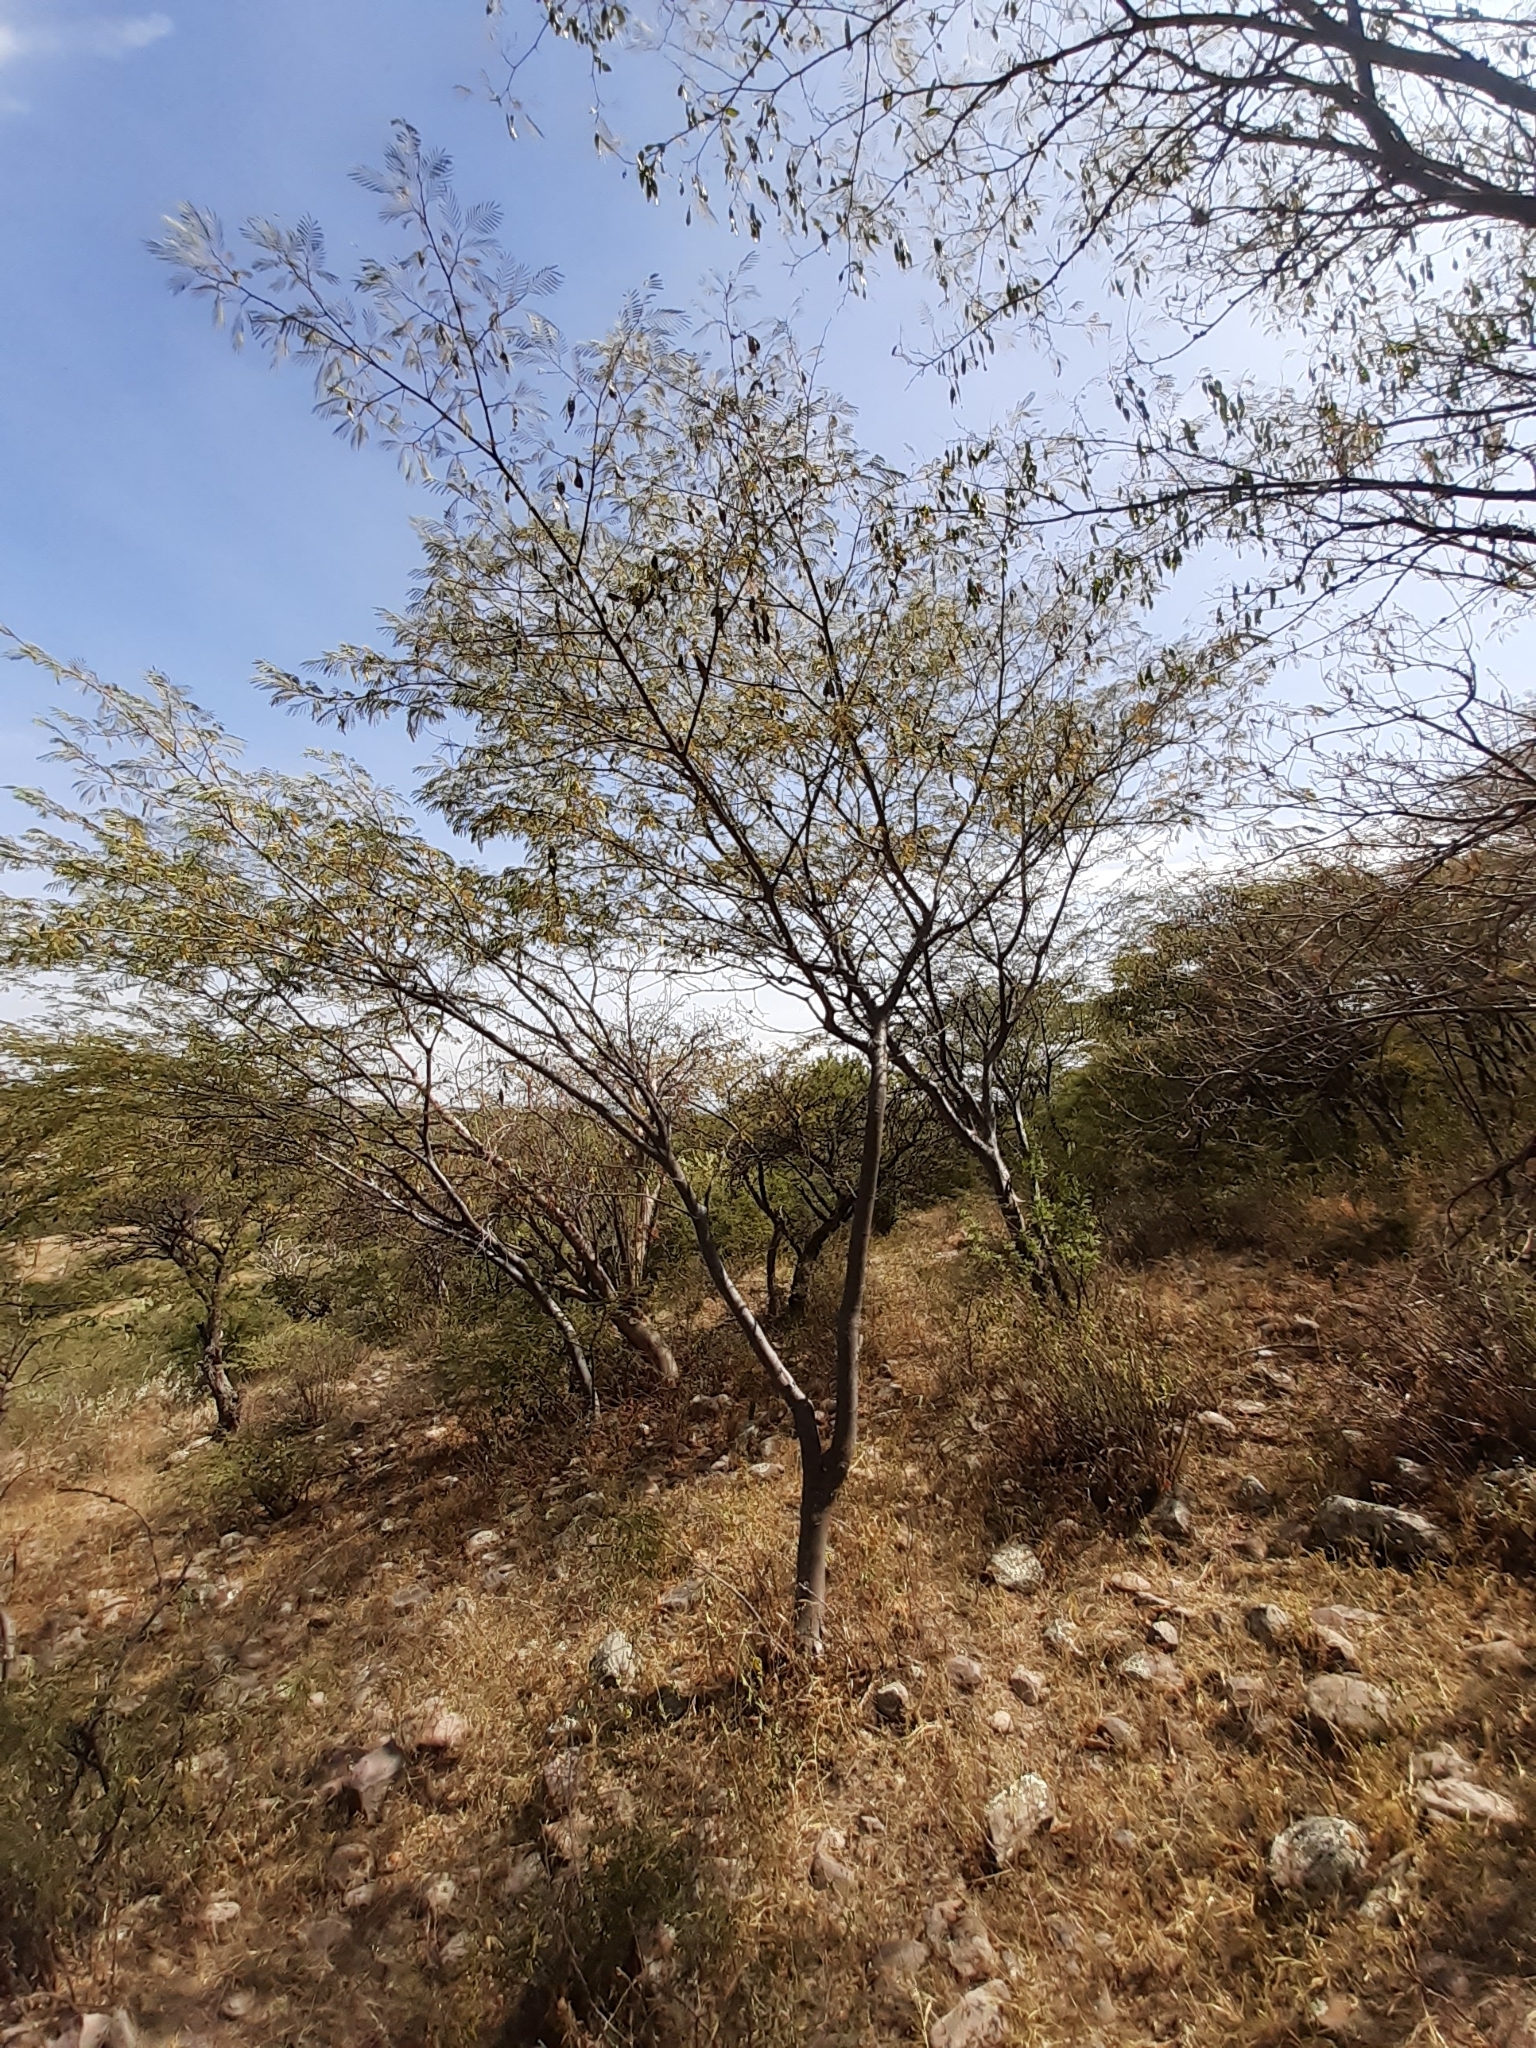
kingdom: Plantae
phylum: Tracheophyta
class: Magnoliopsida
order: Fabales
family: Fabaceae
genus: Lysiloma
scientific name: Lysiloma divaricatum
